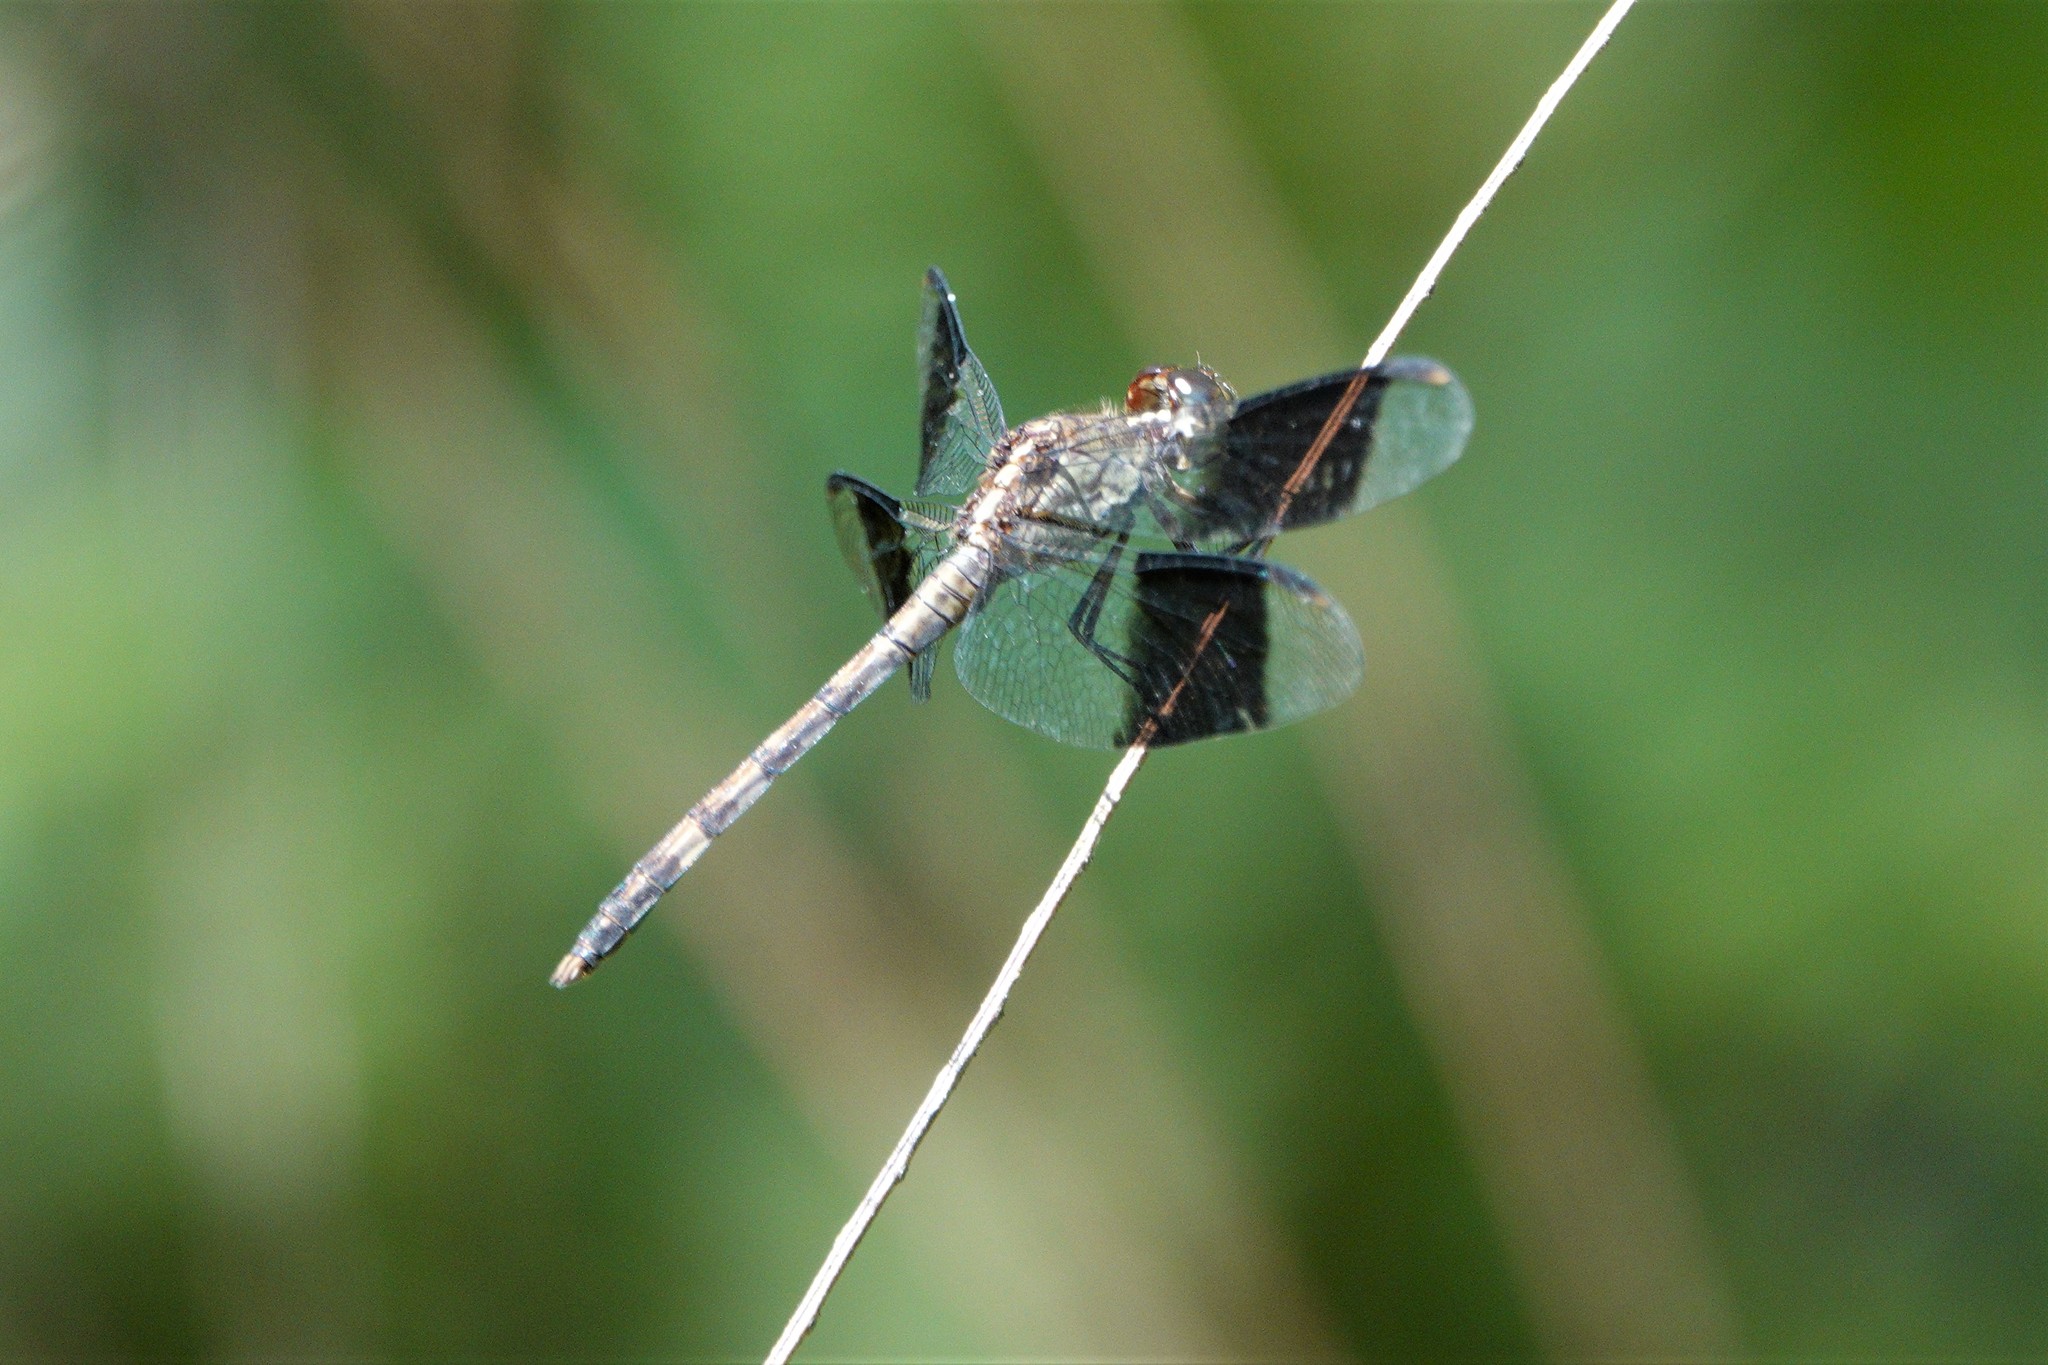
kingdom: Animalia
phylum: Arthropoda
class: Insecta
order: Odonata
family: Libellulidae
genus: Erythrodiplax
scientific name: Erythrodiplax umbrata
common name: Band-winged dragonlet
